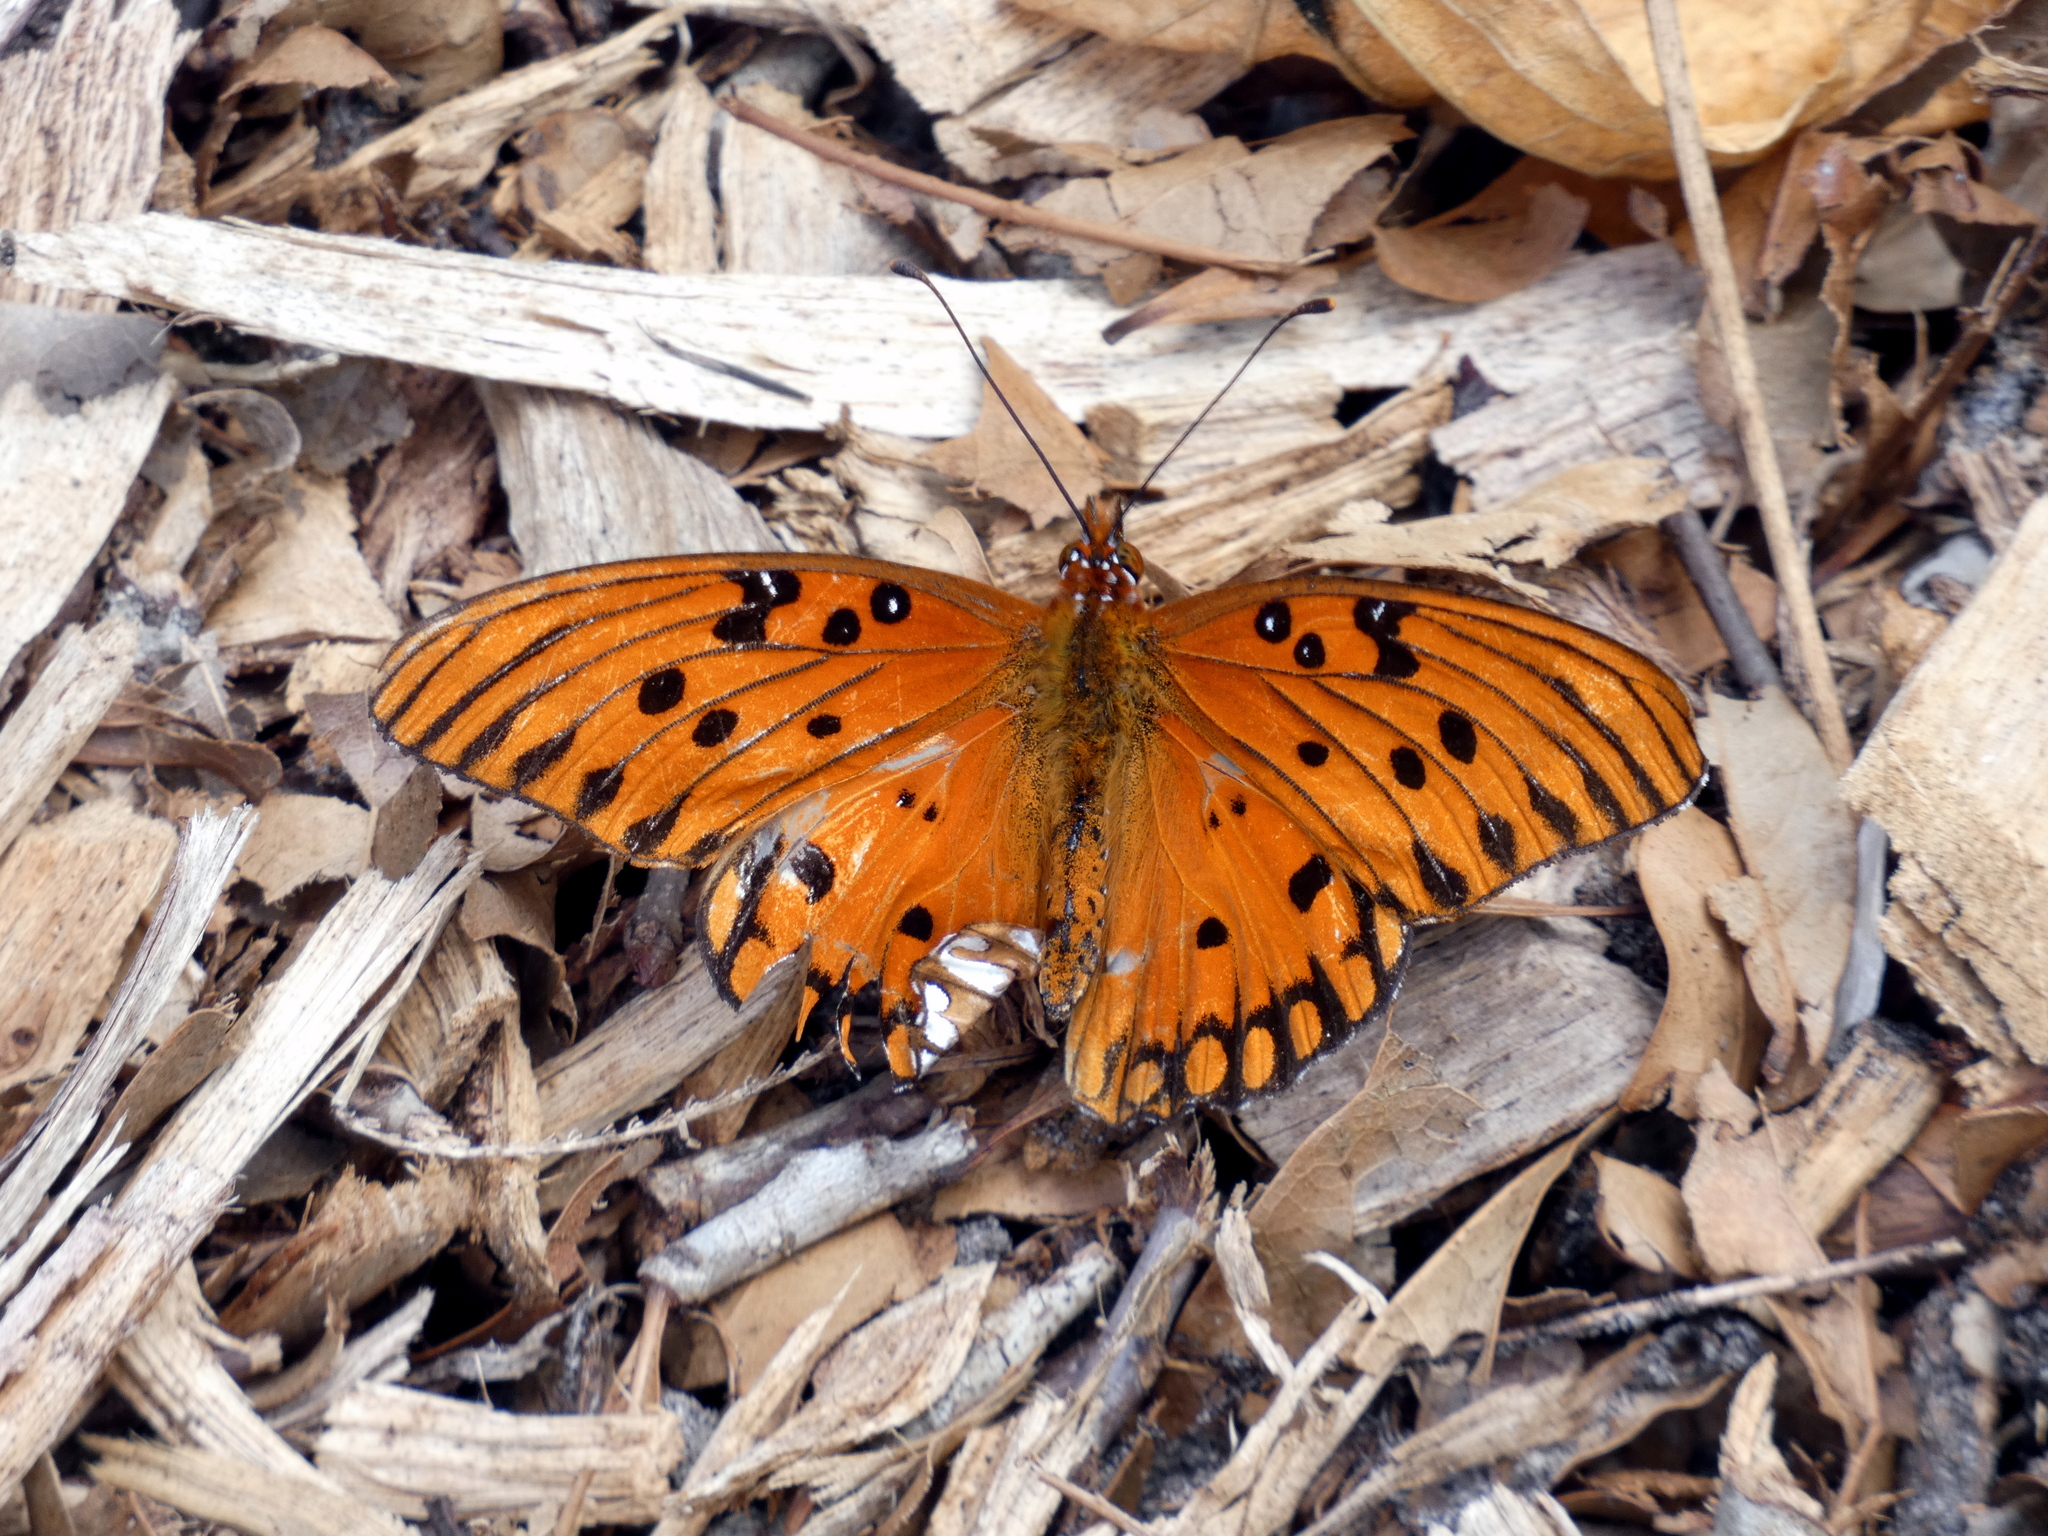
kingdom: Animalia
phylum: Arthropoda
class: Insecta
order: Lepidoptera
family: Nymphalidae
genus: Dione
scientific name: Dione vanillae
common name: Gulf fritillary
